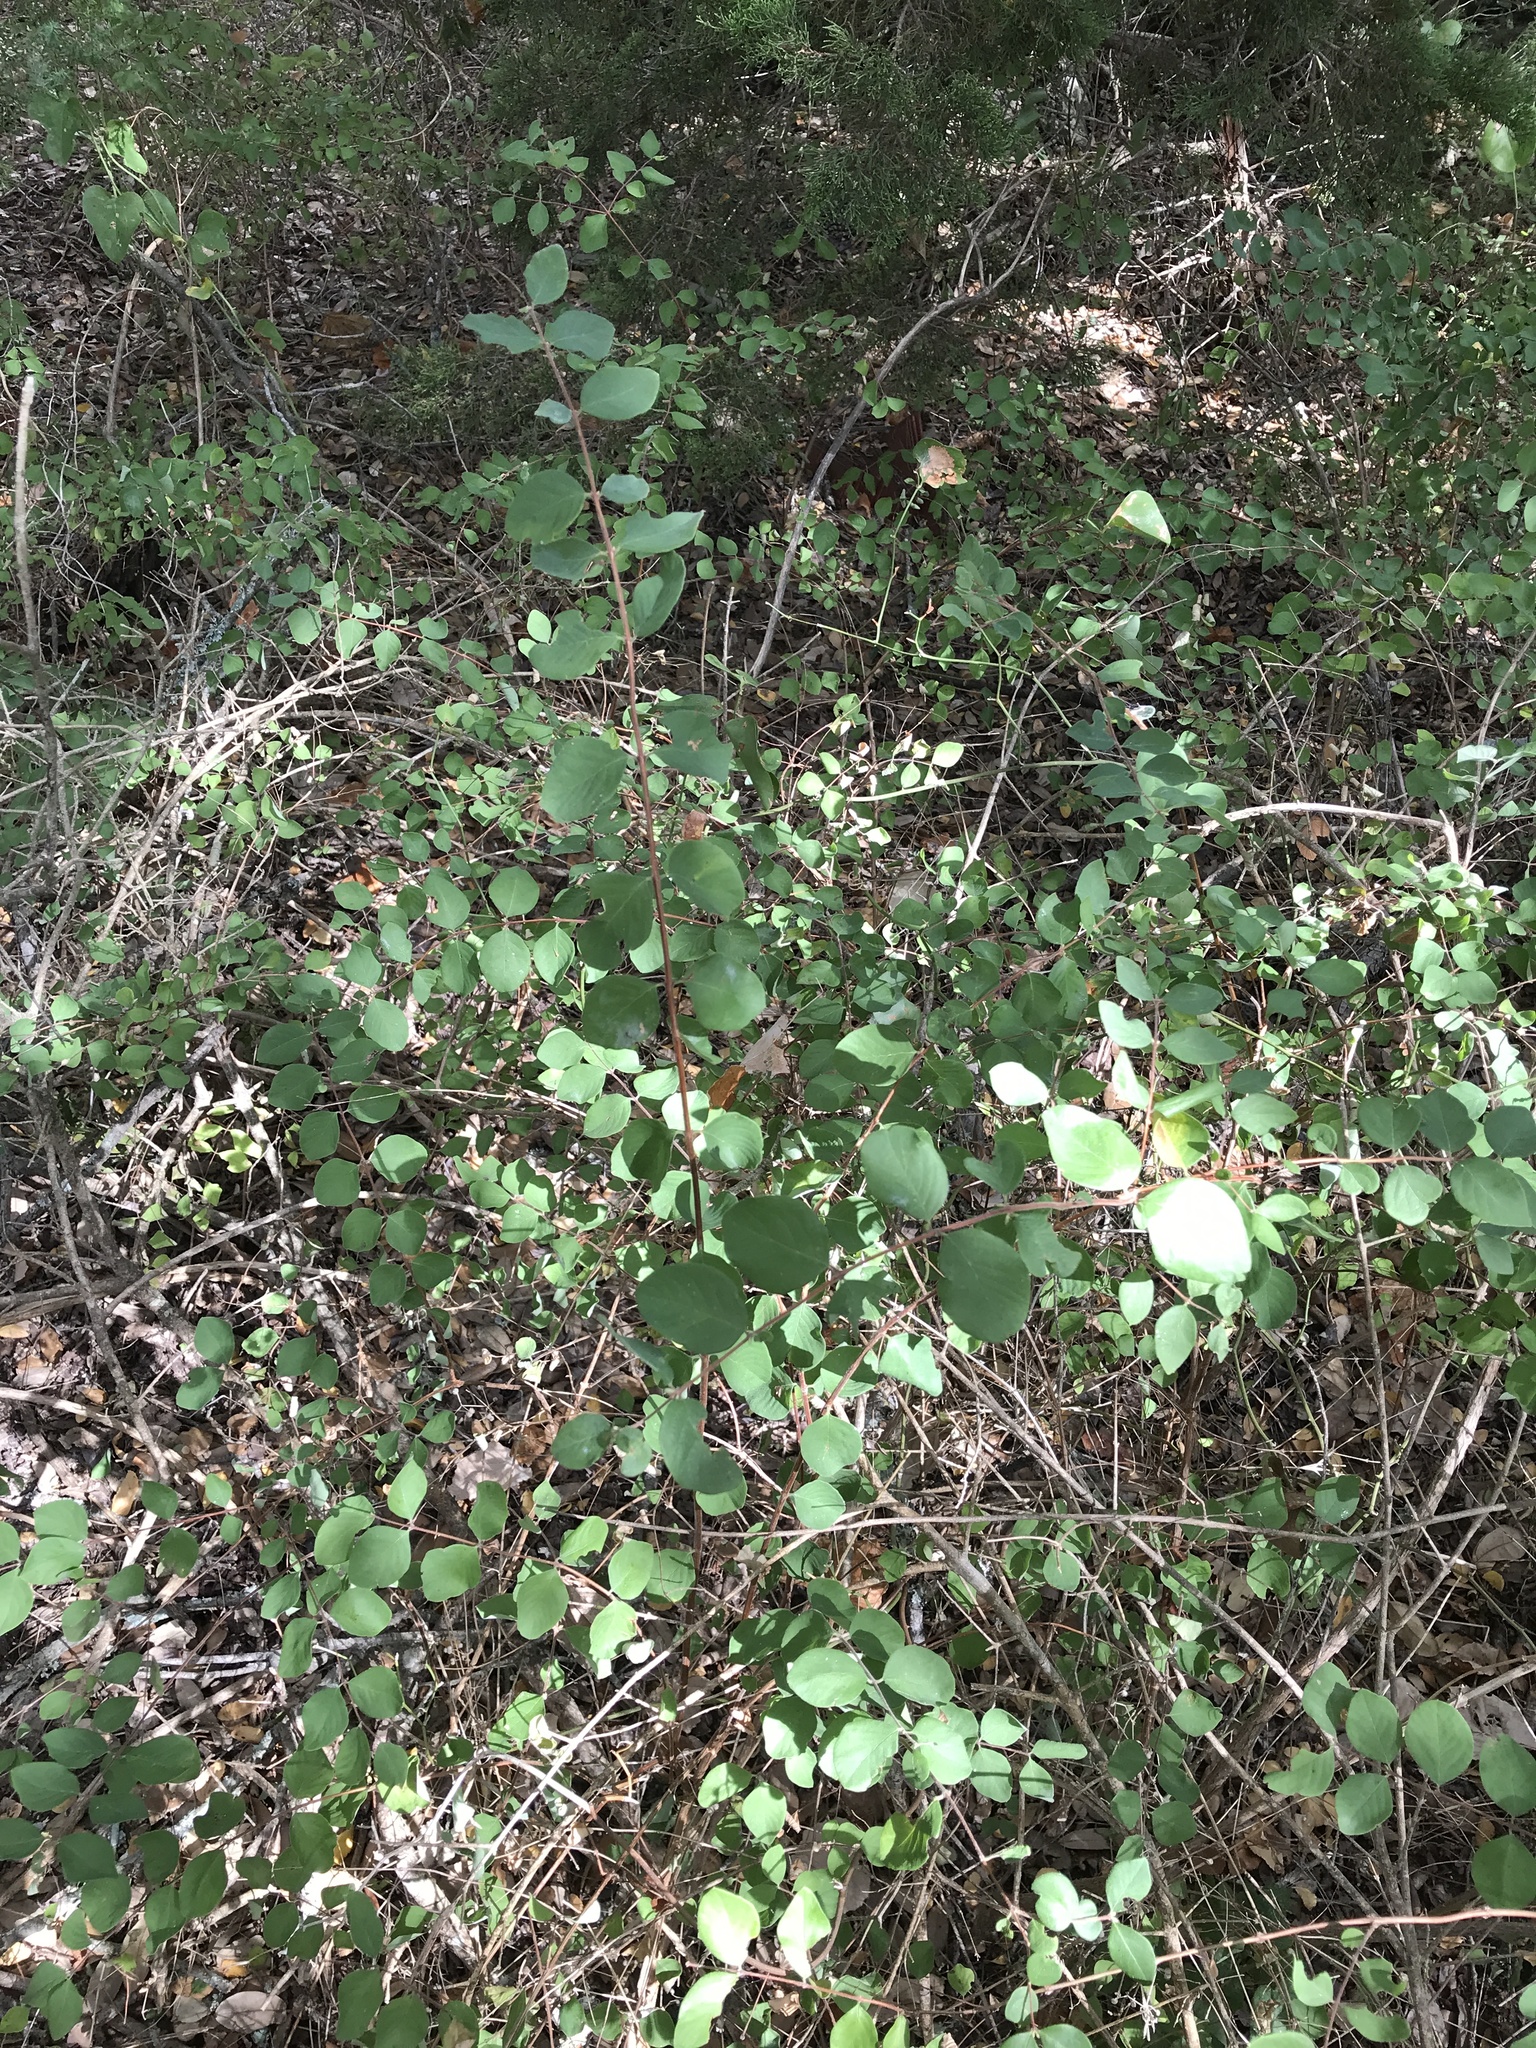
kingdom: Plantae
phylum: Tracheophyta
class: Magnoliopsida
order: Dipsacales
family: Caprifoliaceae
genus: Symphoricarpos
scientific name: Symphoricarpos orbiculatus
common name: Coralberry
